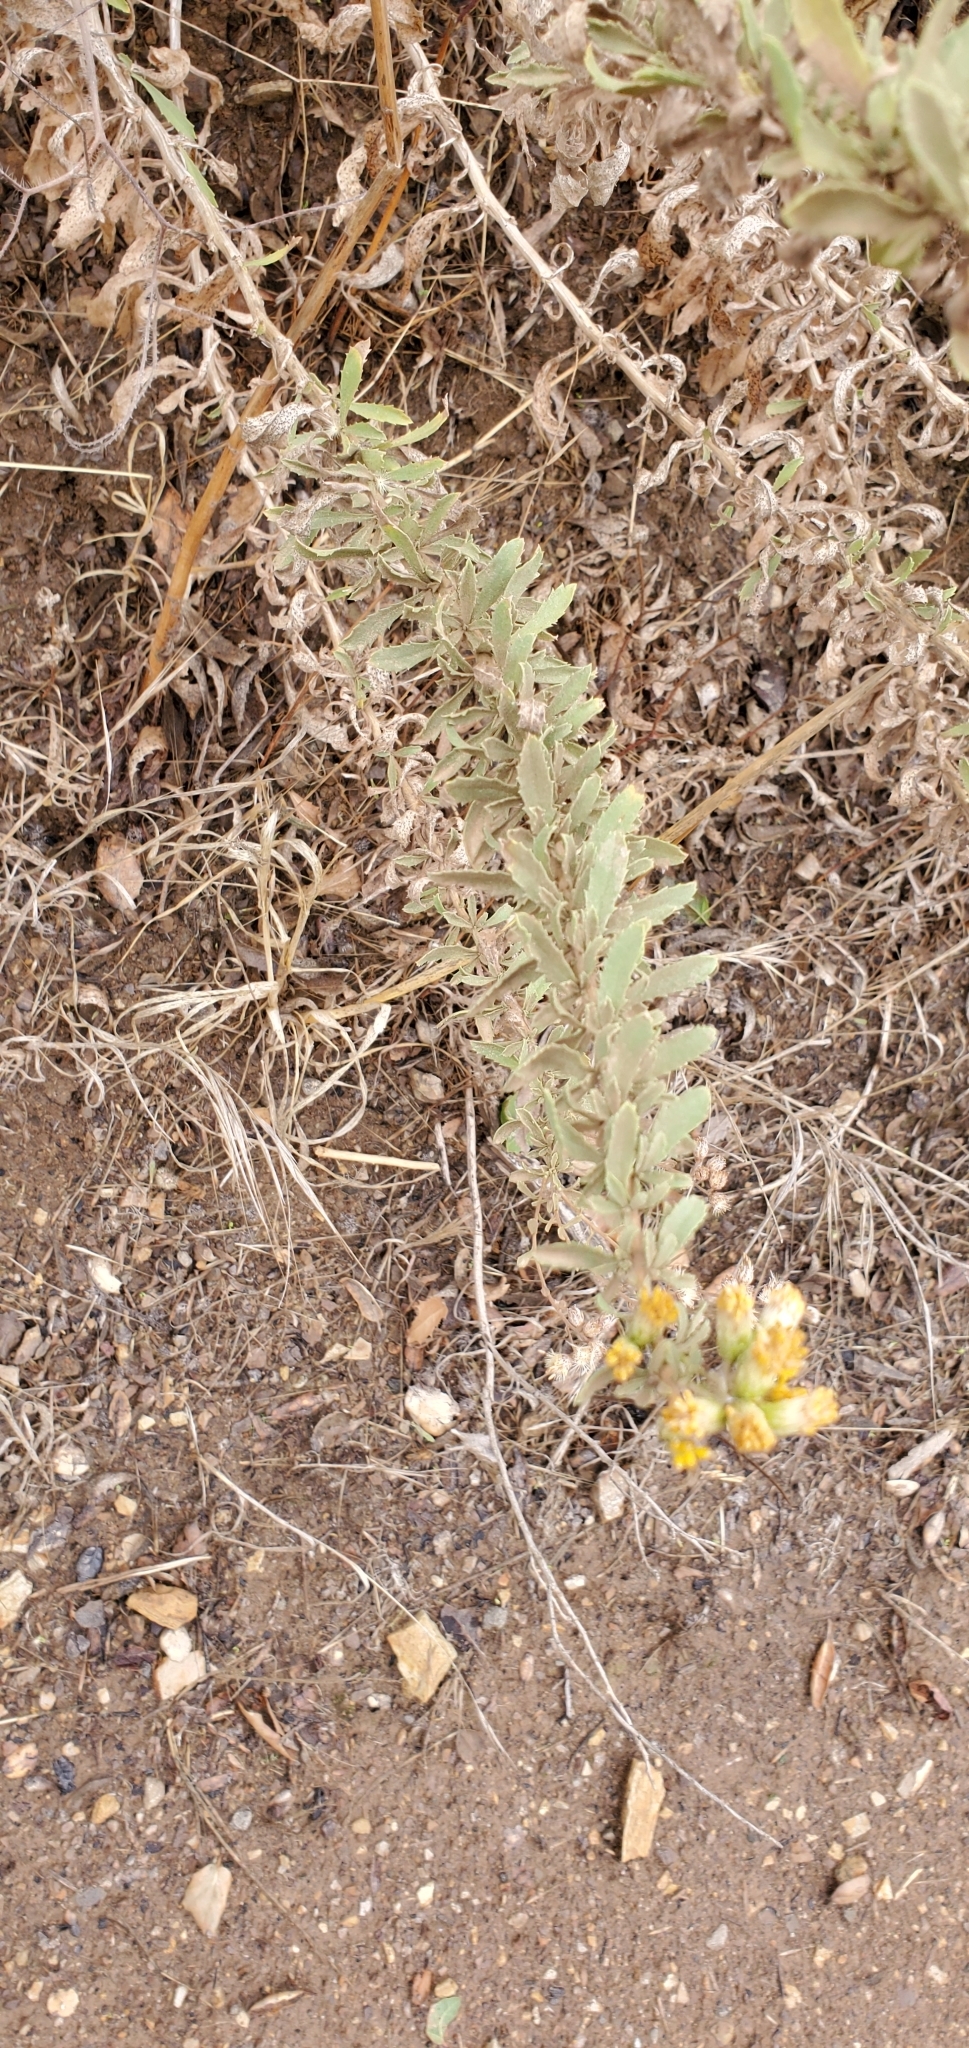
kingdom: Plantae
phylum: Tracheophyta
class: Magnoliopsida
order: Asterales
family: Asteraceae
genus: Isocoma
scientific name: Isocoma menziesii
